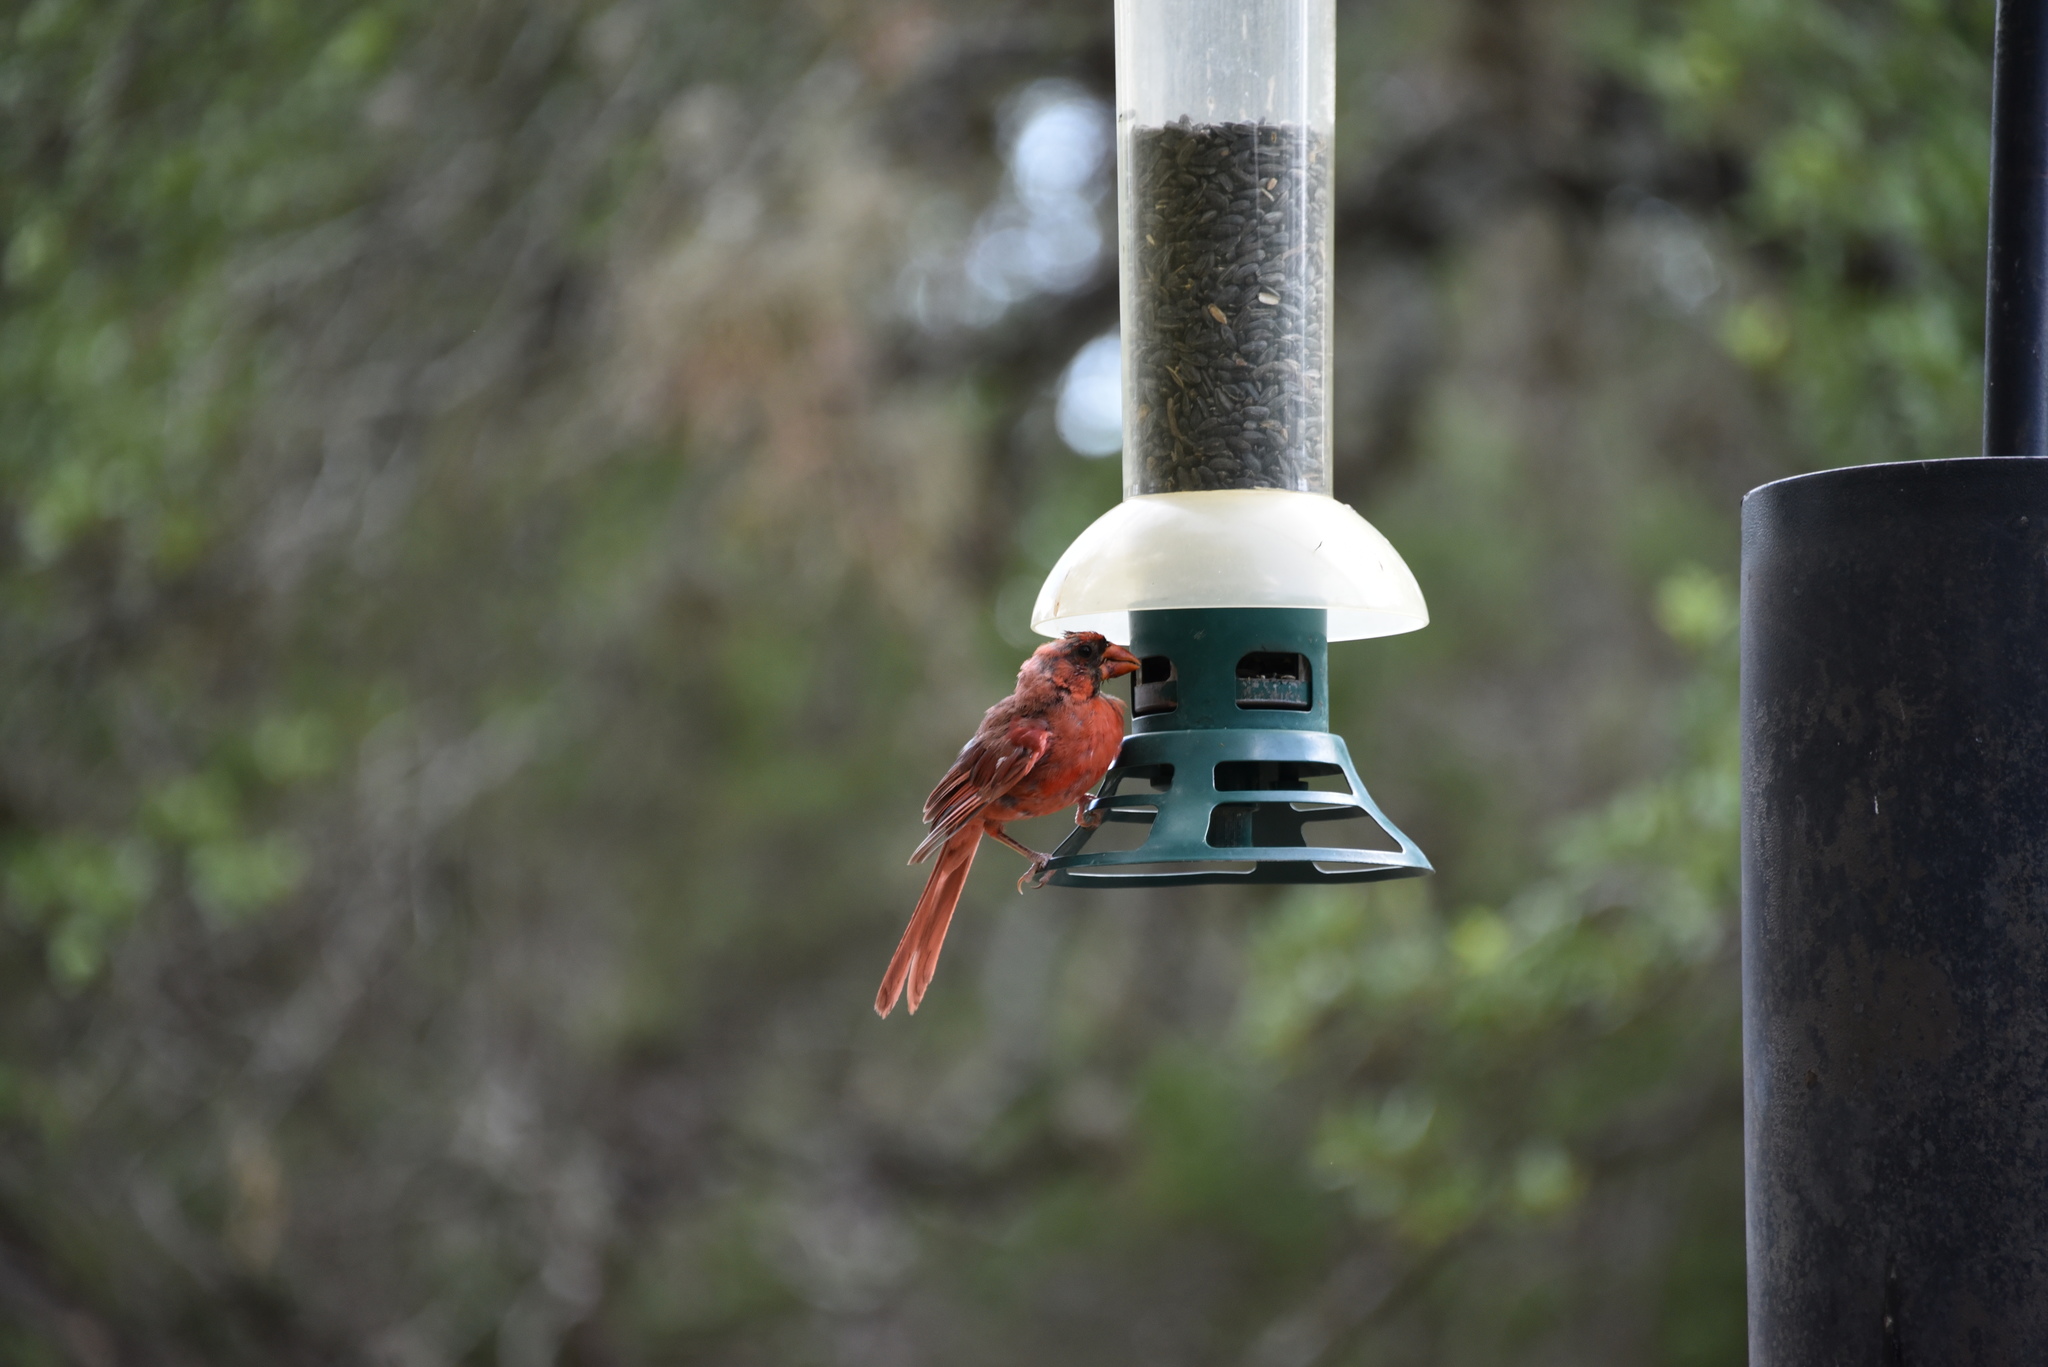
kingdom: Animalia
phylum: Chordata
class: Aves
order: Passeriformes
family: Cardinalidae
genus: Cardinalis
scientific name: Cardinalis cardinalis
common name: Northern cardinal
